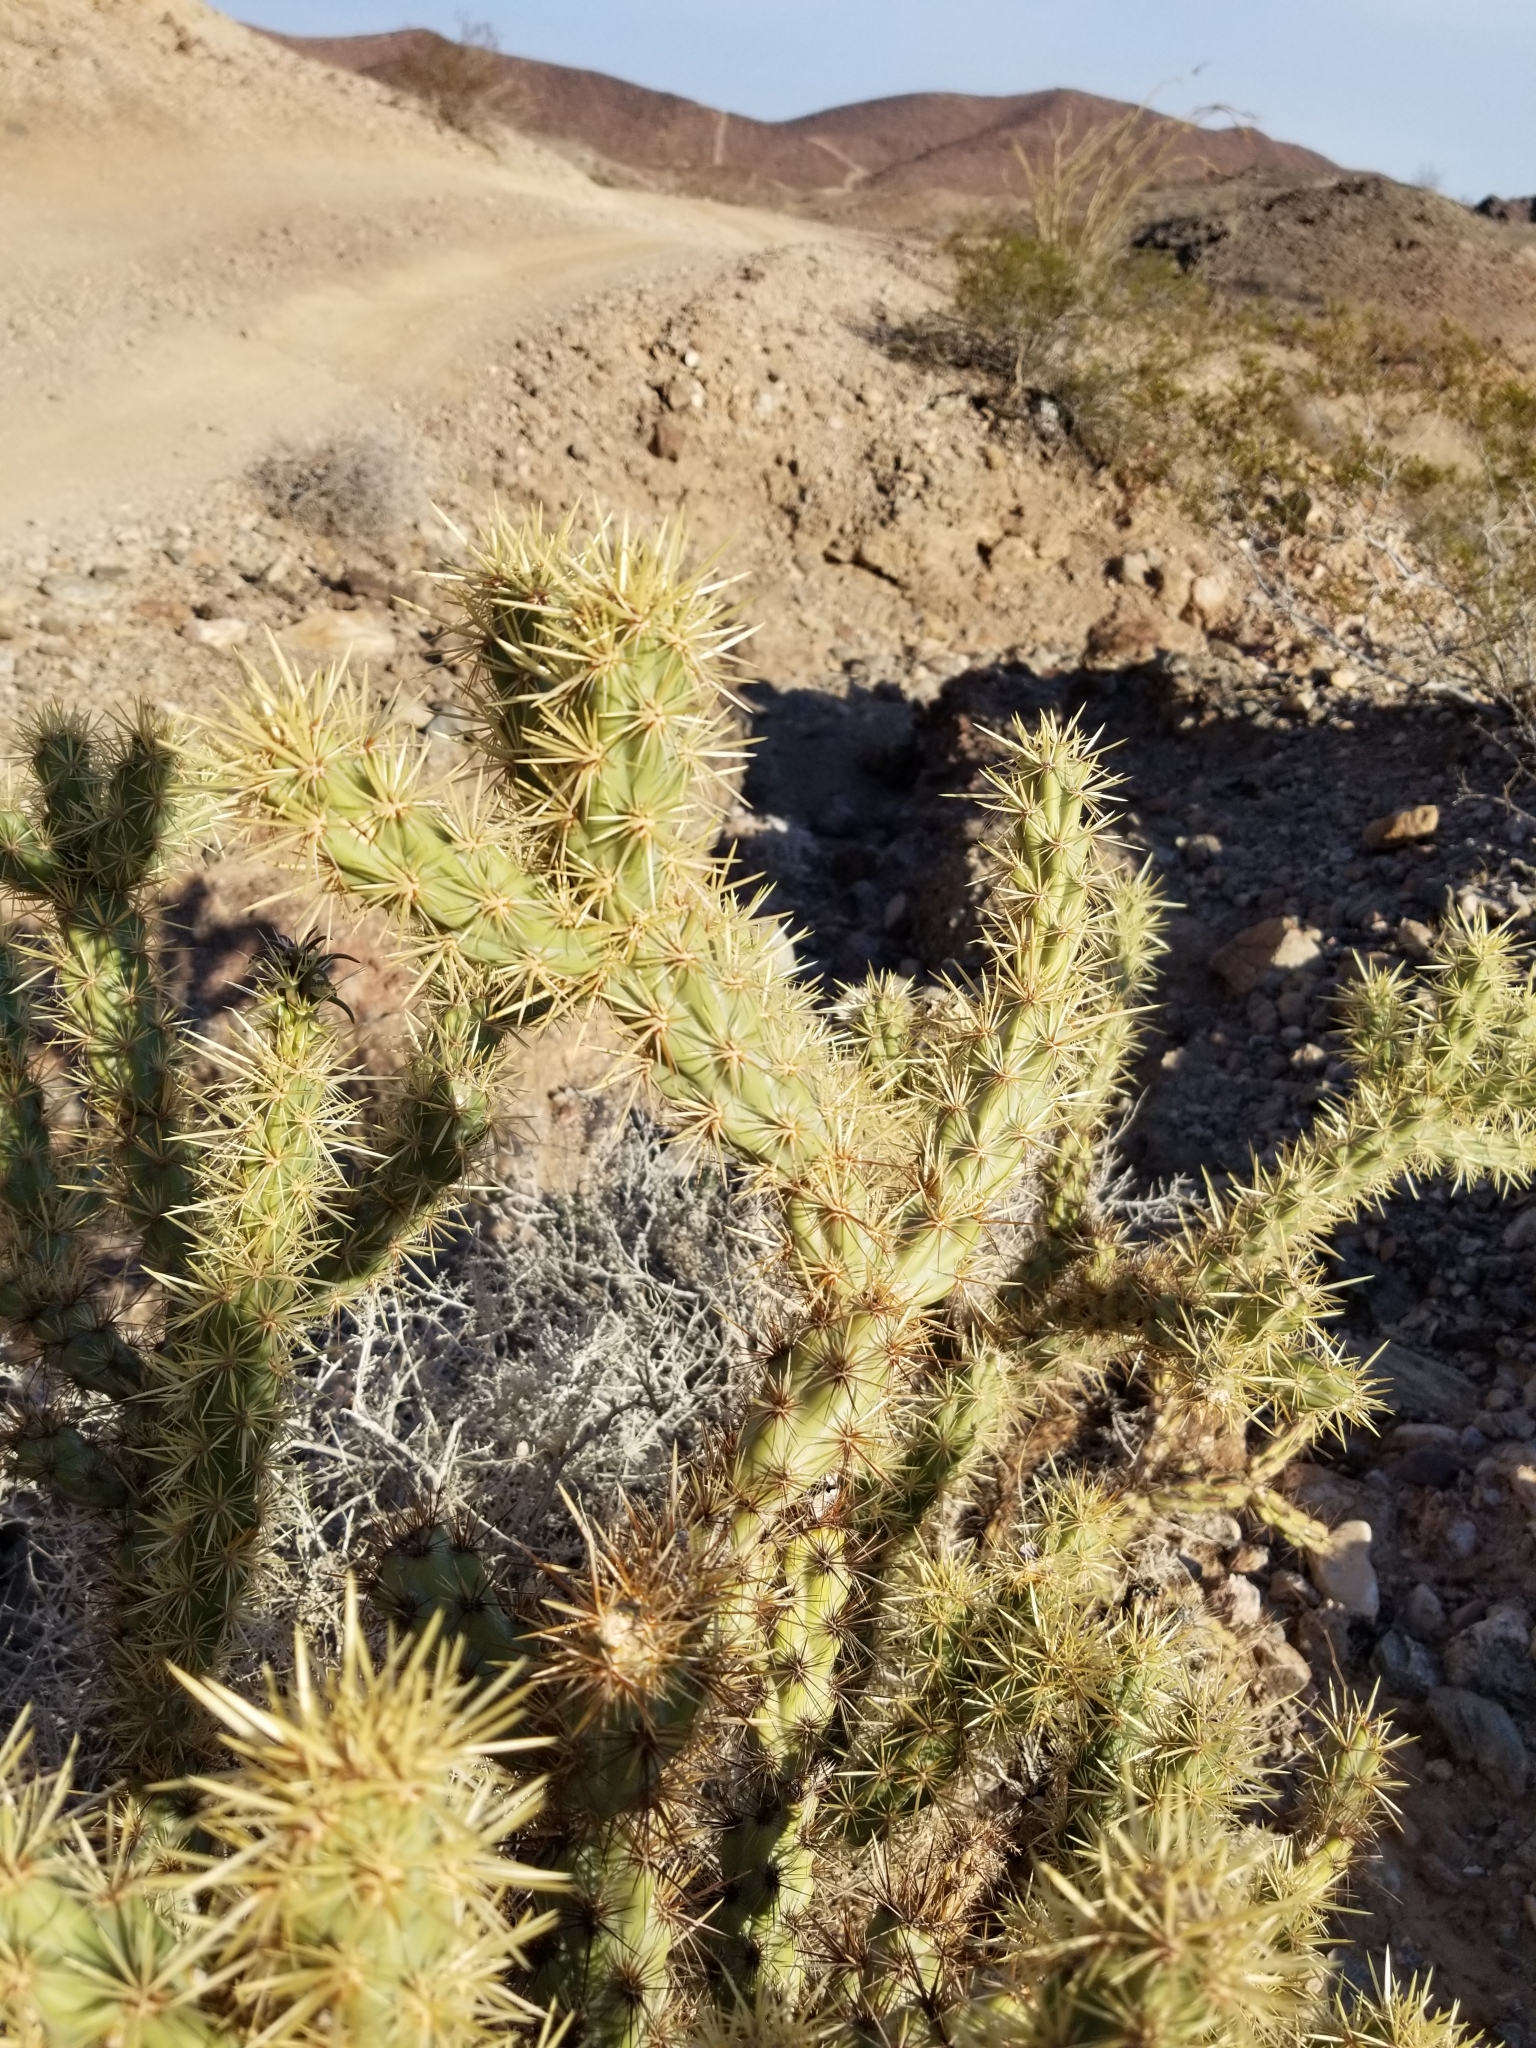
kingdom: Plantae
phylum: Tracheophyta
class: Magnoliopsida
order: Caryophyllales
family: Cactaceae
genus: Cylindropuntia
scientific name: Cylindropuntia acanthocarpa
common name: Buckhorn cholla
